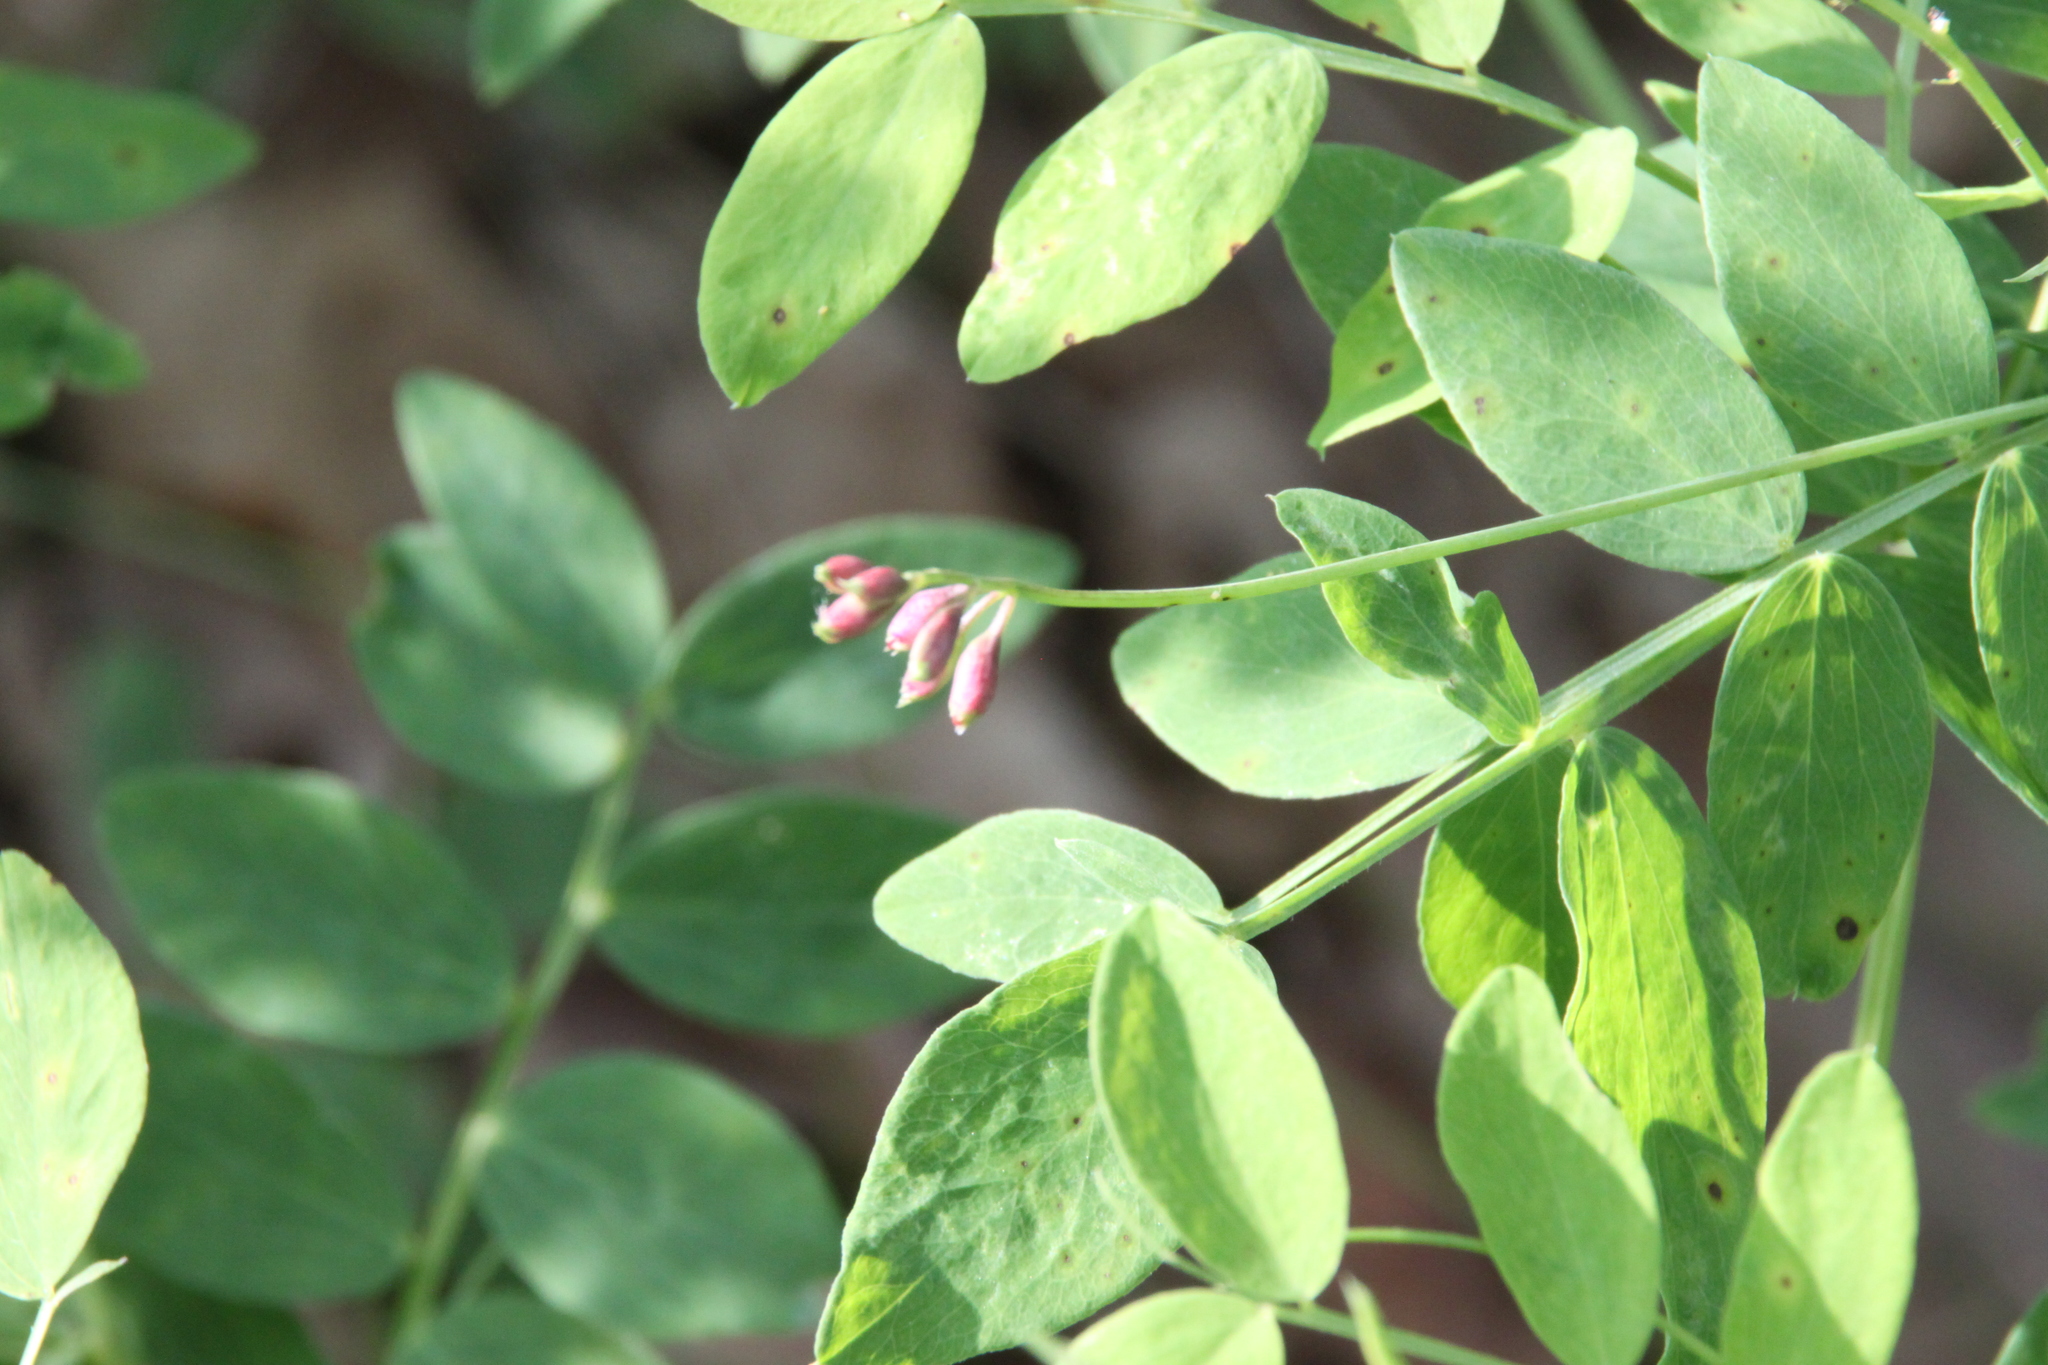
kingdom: Plantae
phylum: Tracheophyta
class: Magnoliopsida
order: Fabales
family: Fabaceae
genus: Lathyrus
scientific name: Lathyrus niger
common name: Black pea
